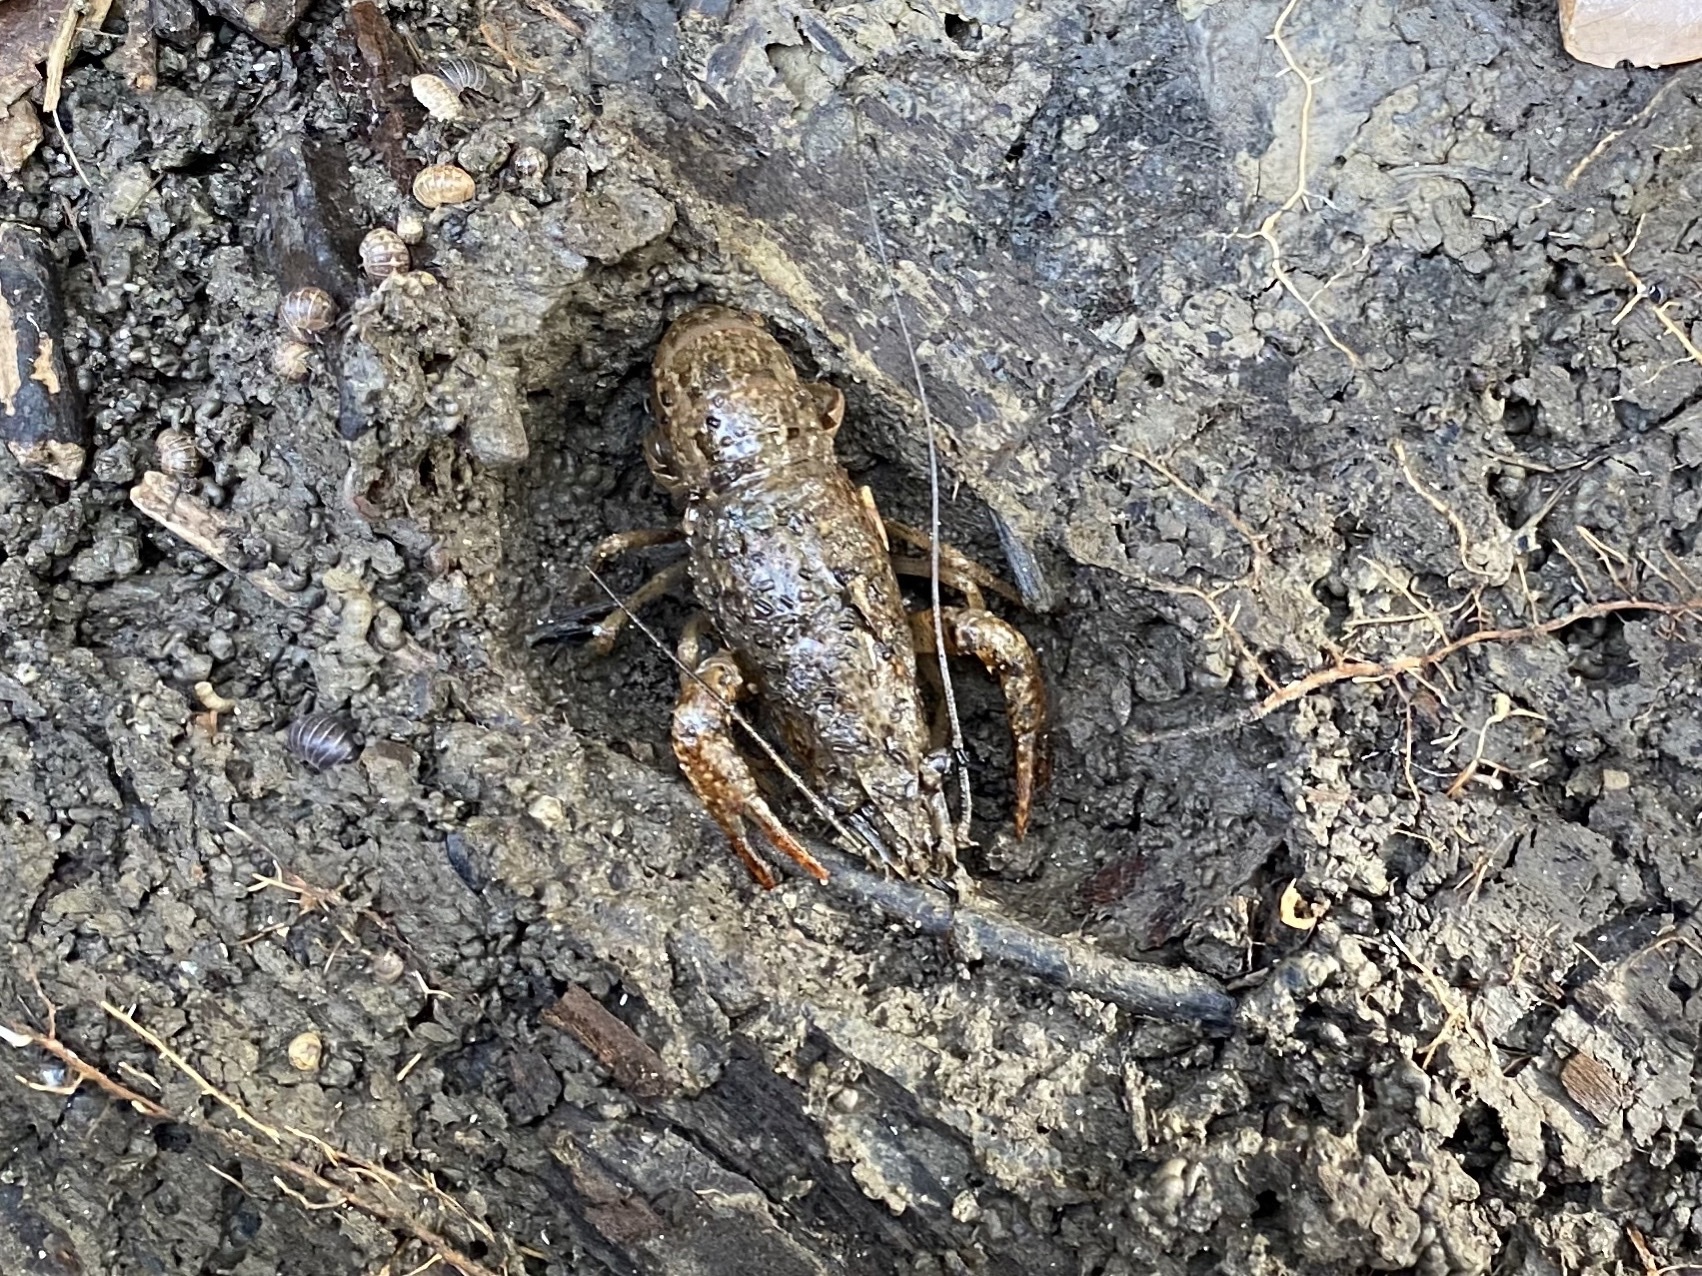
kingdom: Animalia
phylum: Arthropoda
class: Malacostraca
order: Decapoda
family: Cambaridae
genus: Procambarus
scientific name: Procambarus clarkii
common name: Red swamp crayfish
